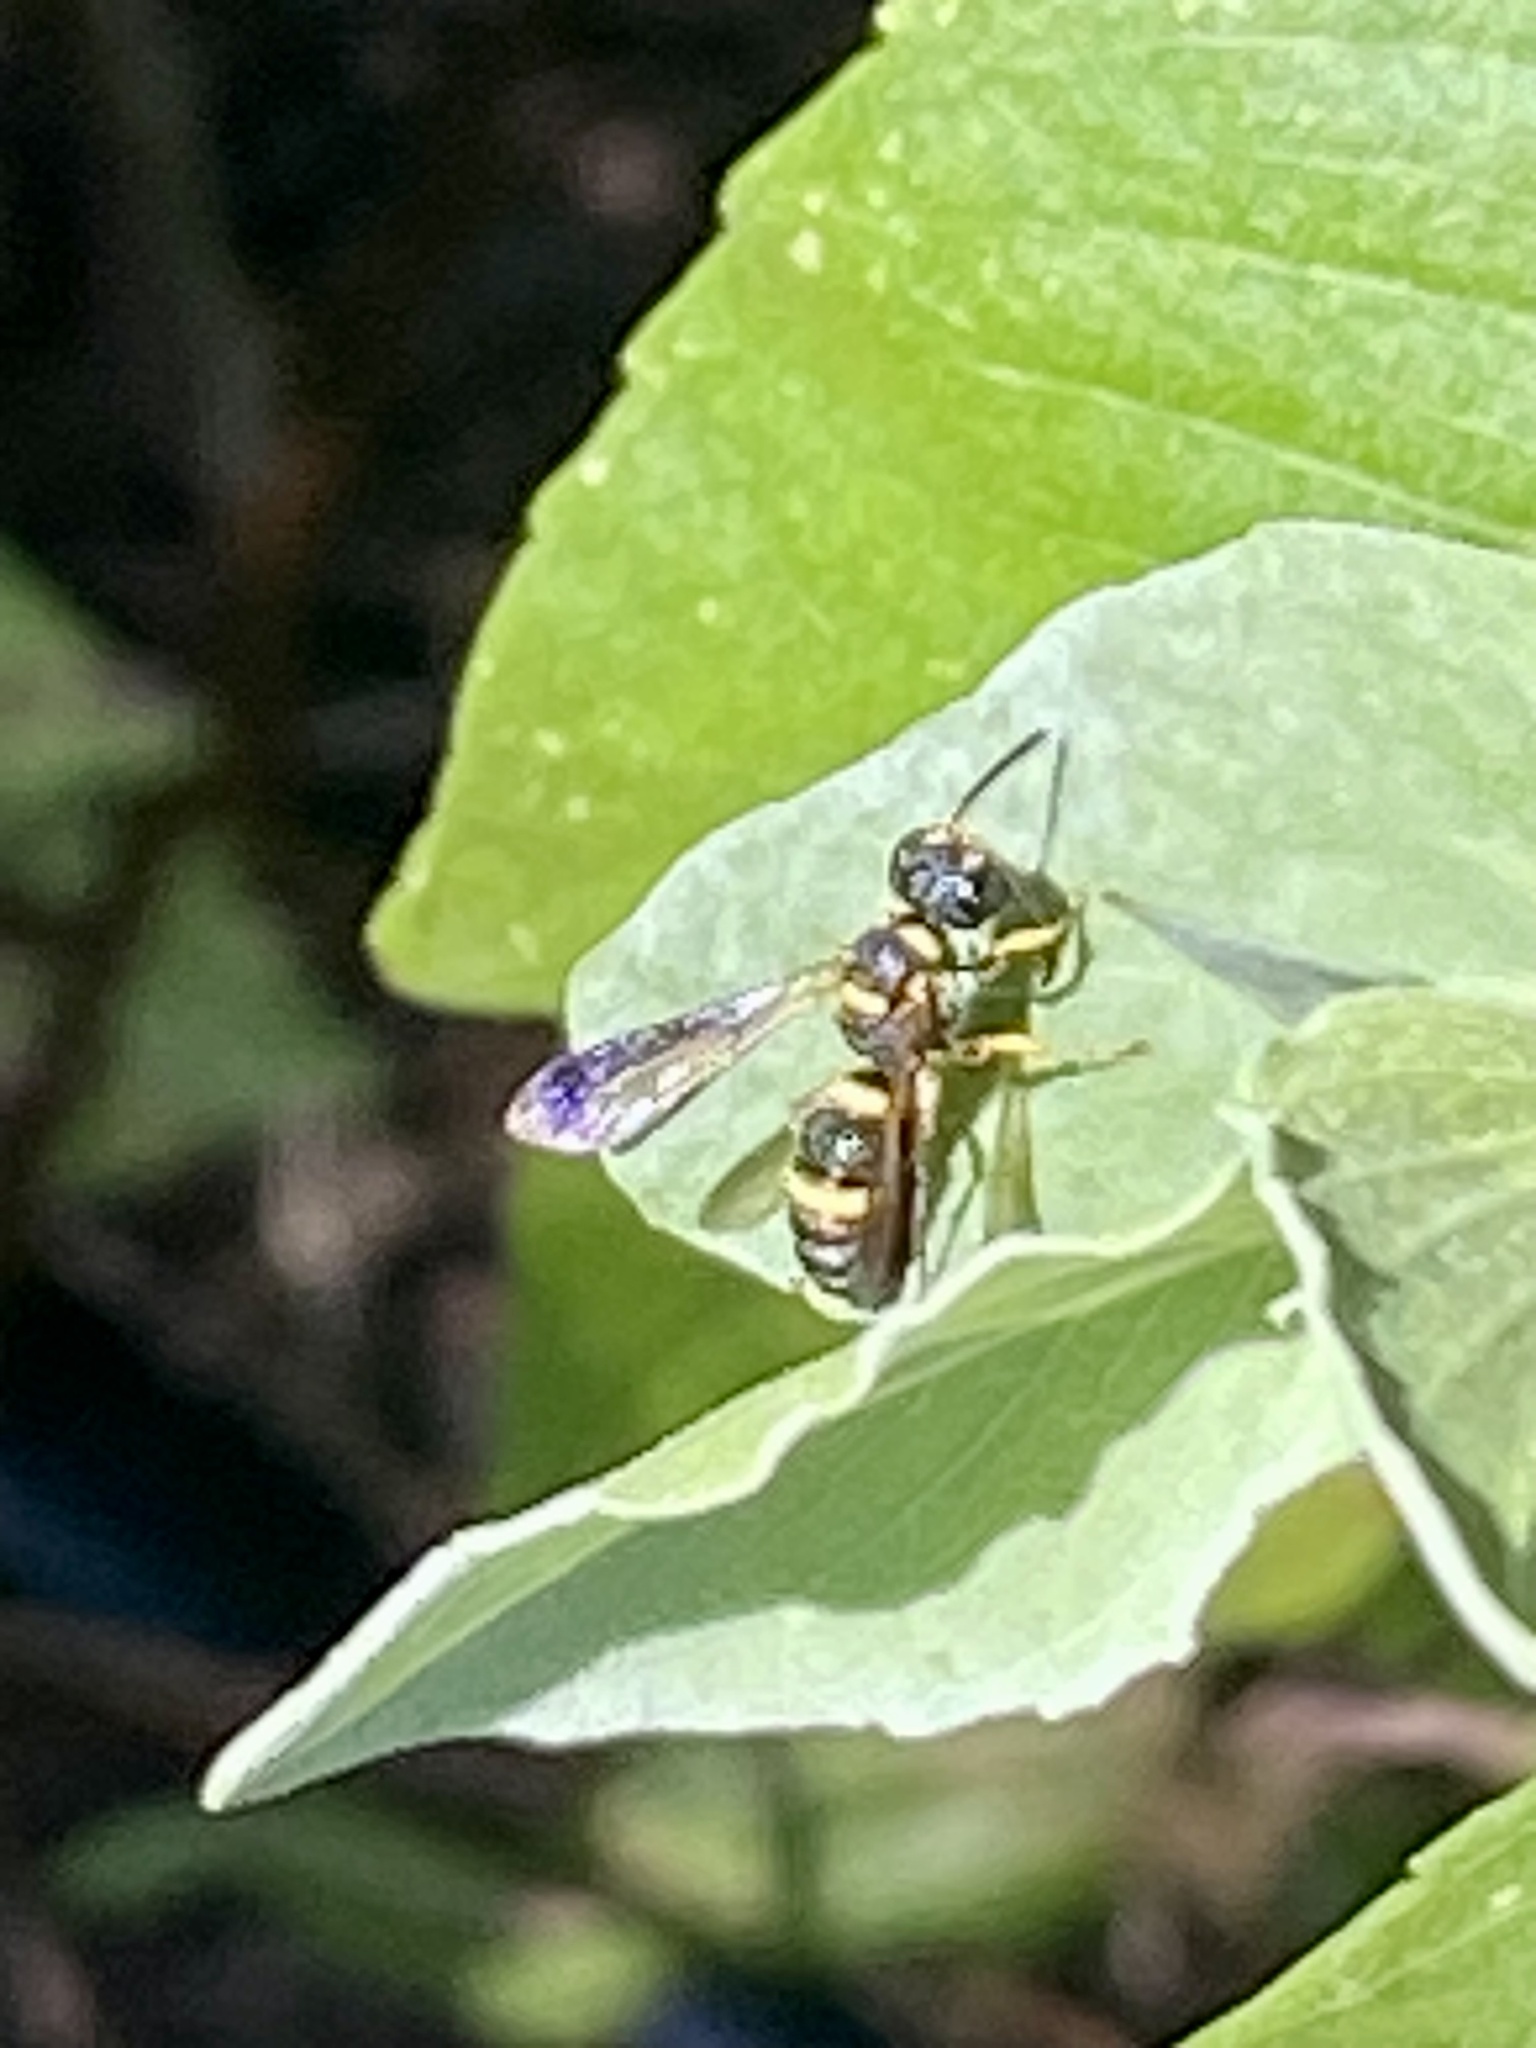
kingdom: Animalia
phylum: Arthropoda
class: Insecta
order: Hymenoptera
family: Crabronidae
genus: Cerceris
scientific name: Cerceris insolita
